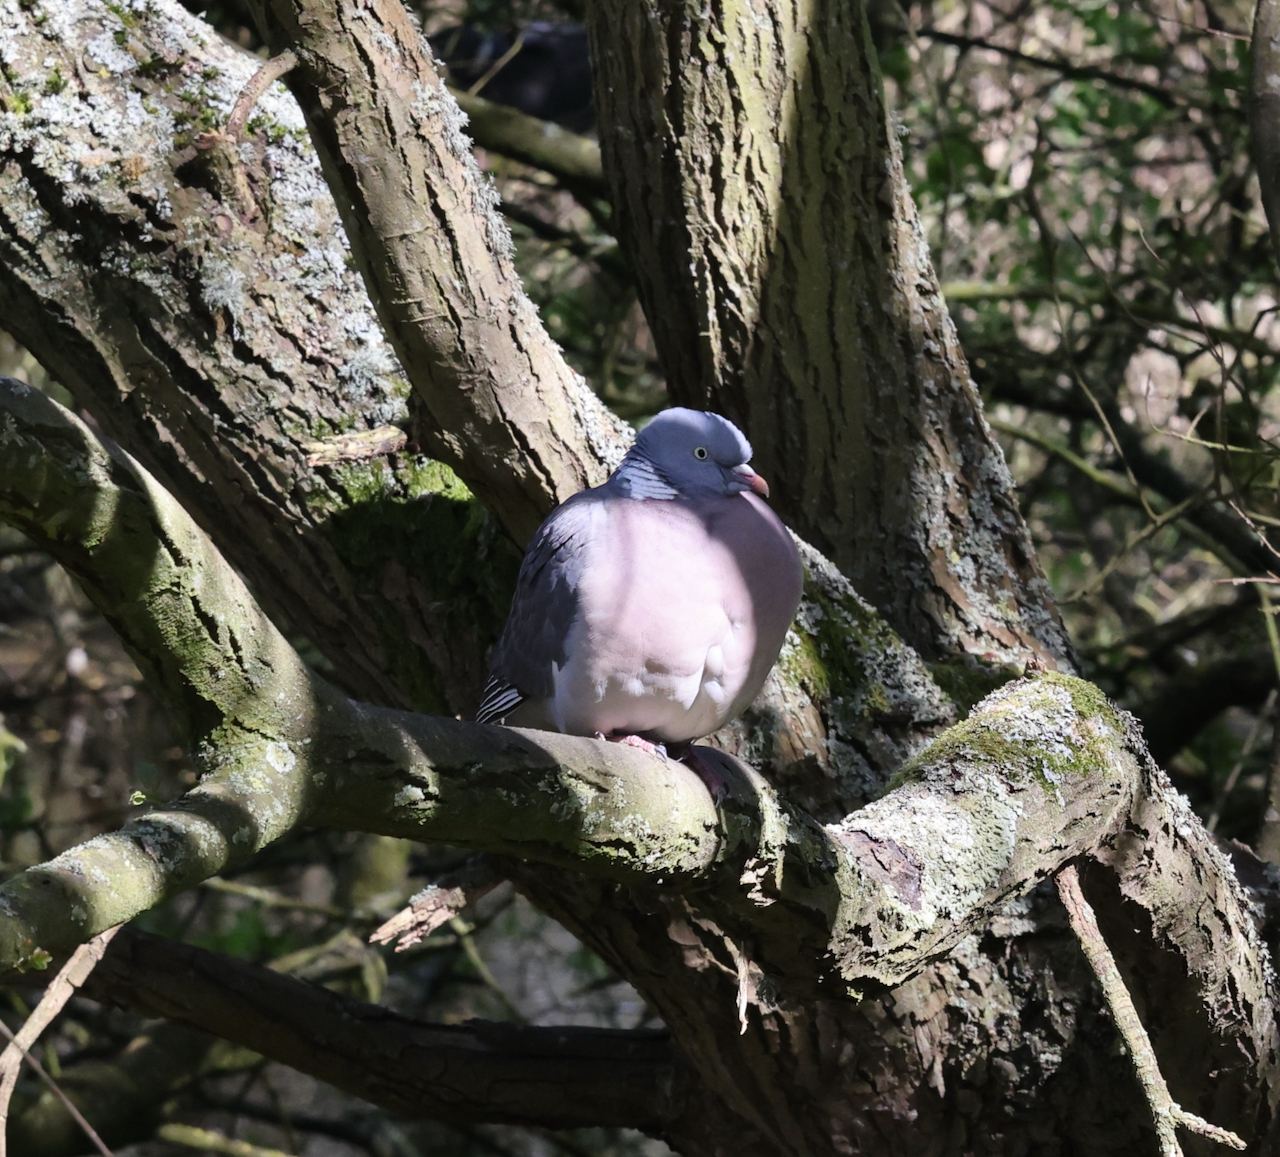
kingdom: Animalia
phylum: Chordata
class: Aves
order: Columbiformes
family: Columbidae
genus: Columba
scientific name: Columba palumbus
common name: Common wood pigeon
